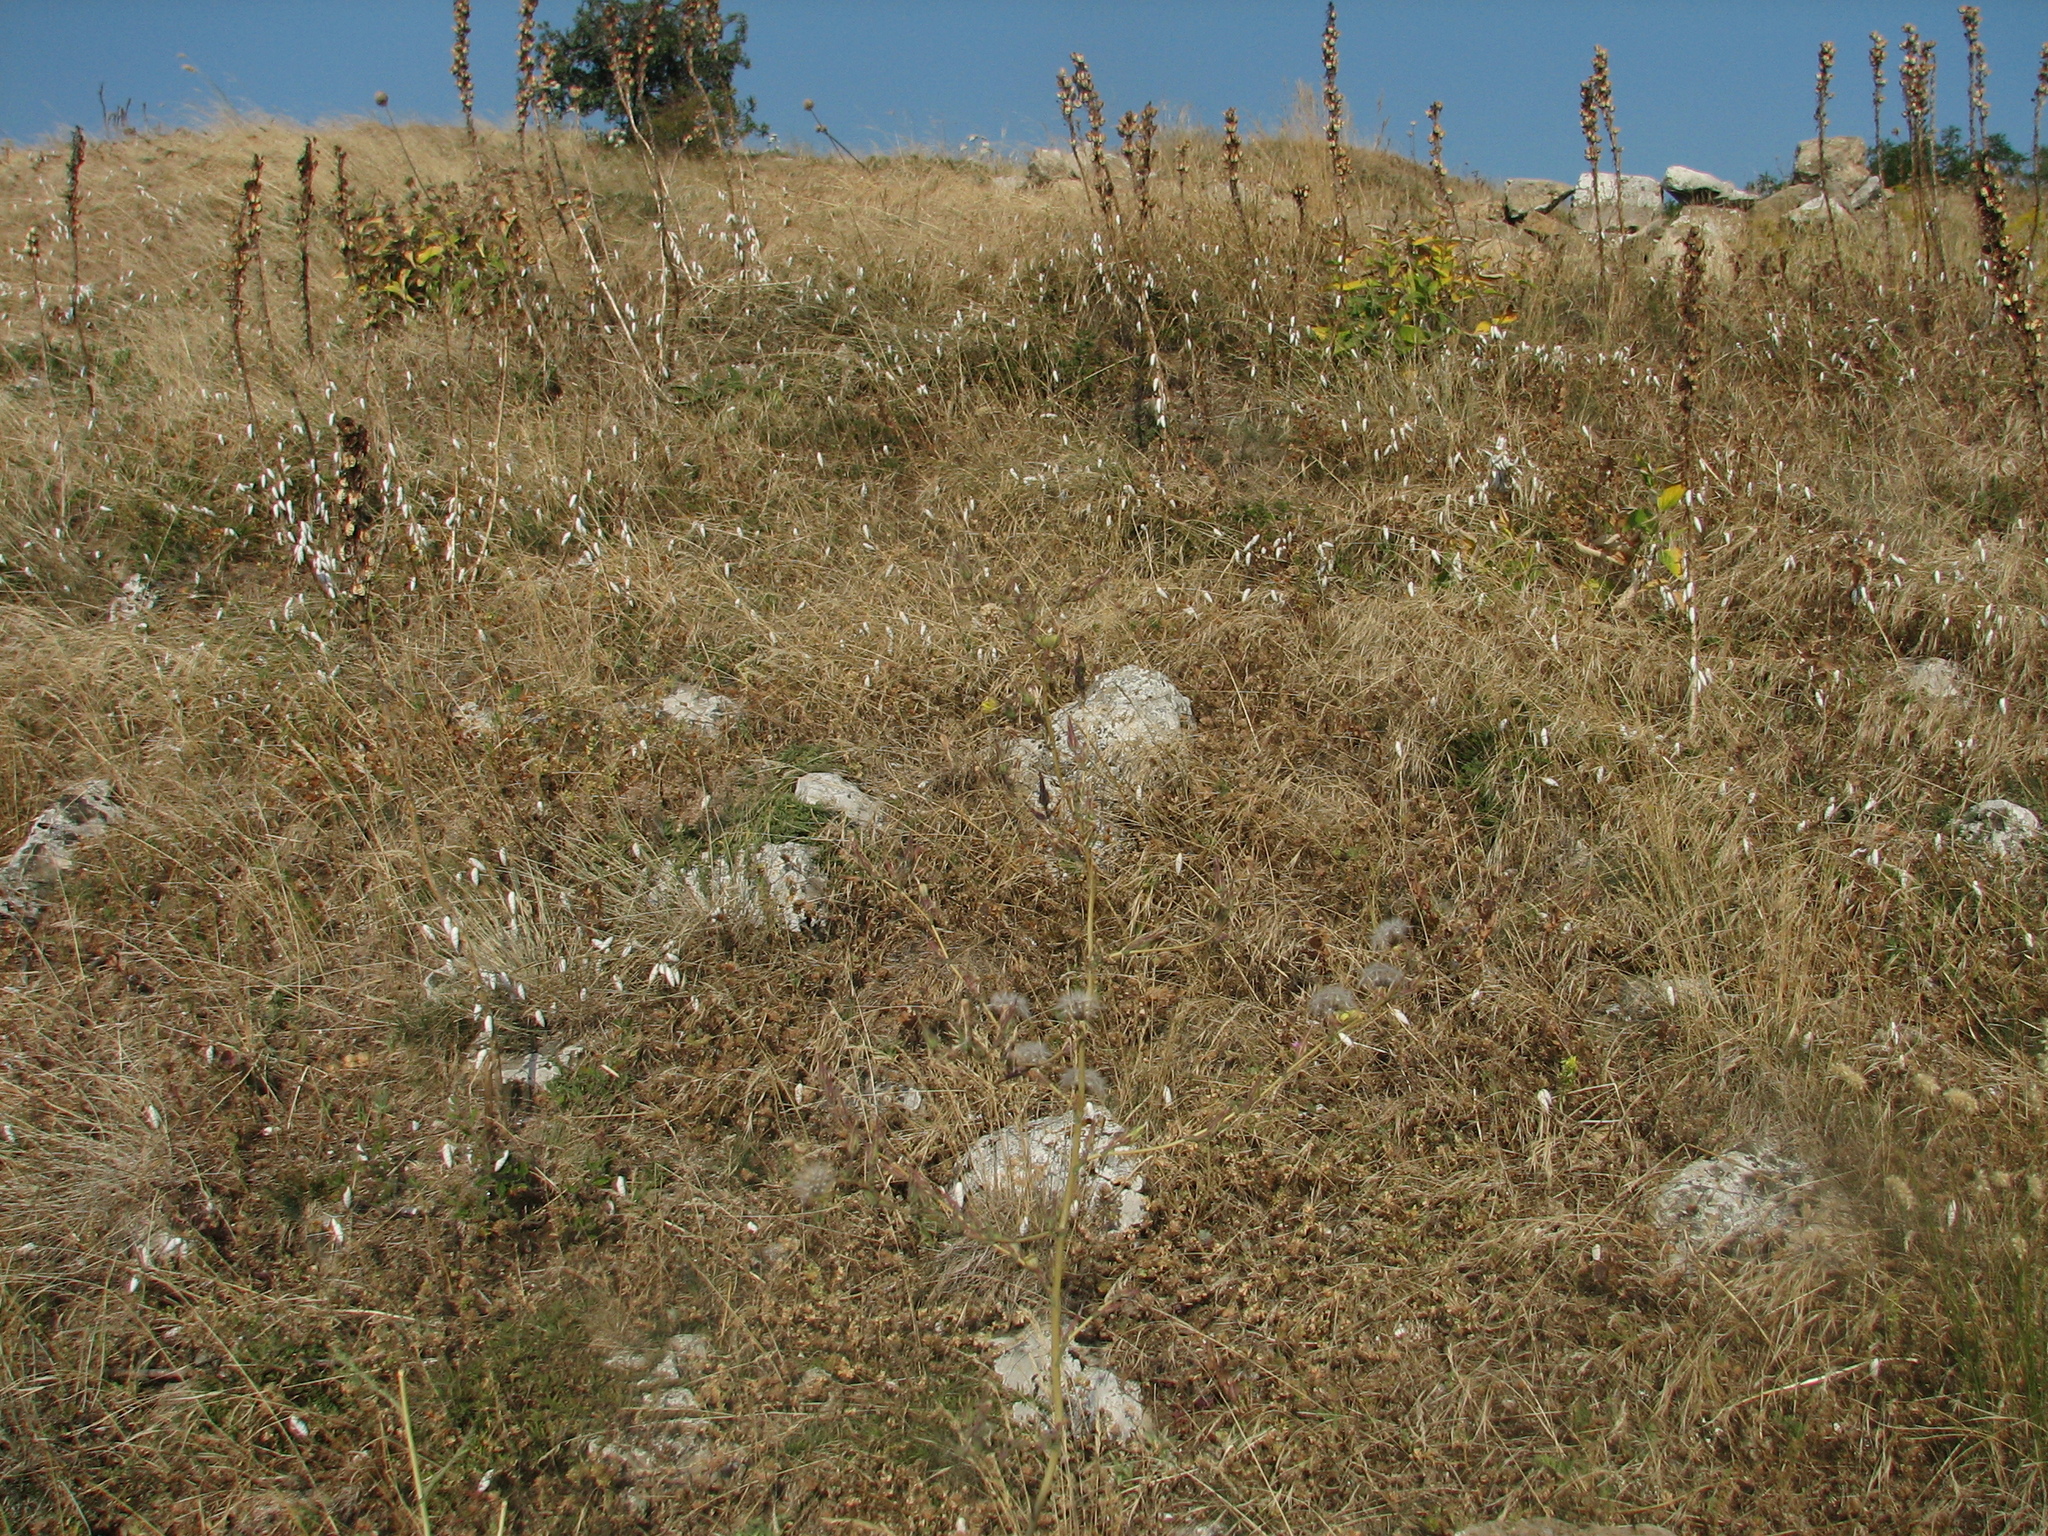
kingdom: Plantae
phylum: Tracheophyta
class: Magnoliopsida
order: Lamiales
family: Lamiaceae
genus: Sideritis
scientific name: Sideritis montana
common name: Mountain ironwort
